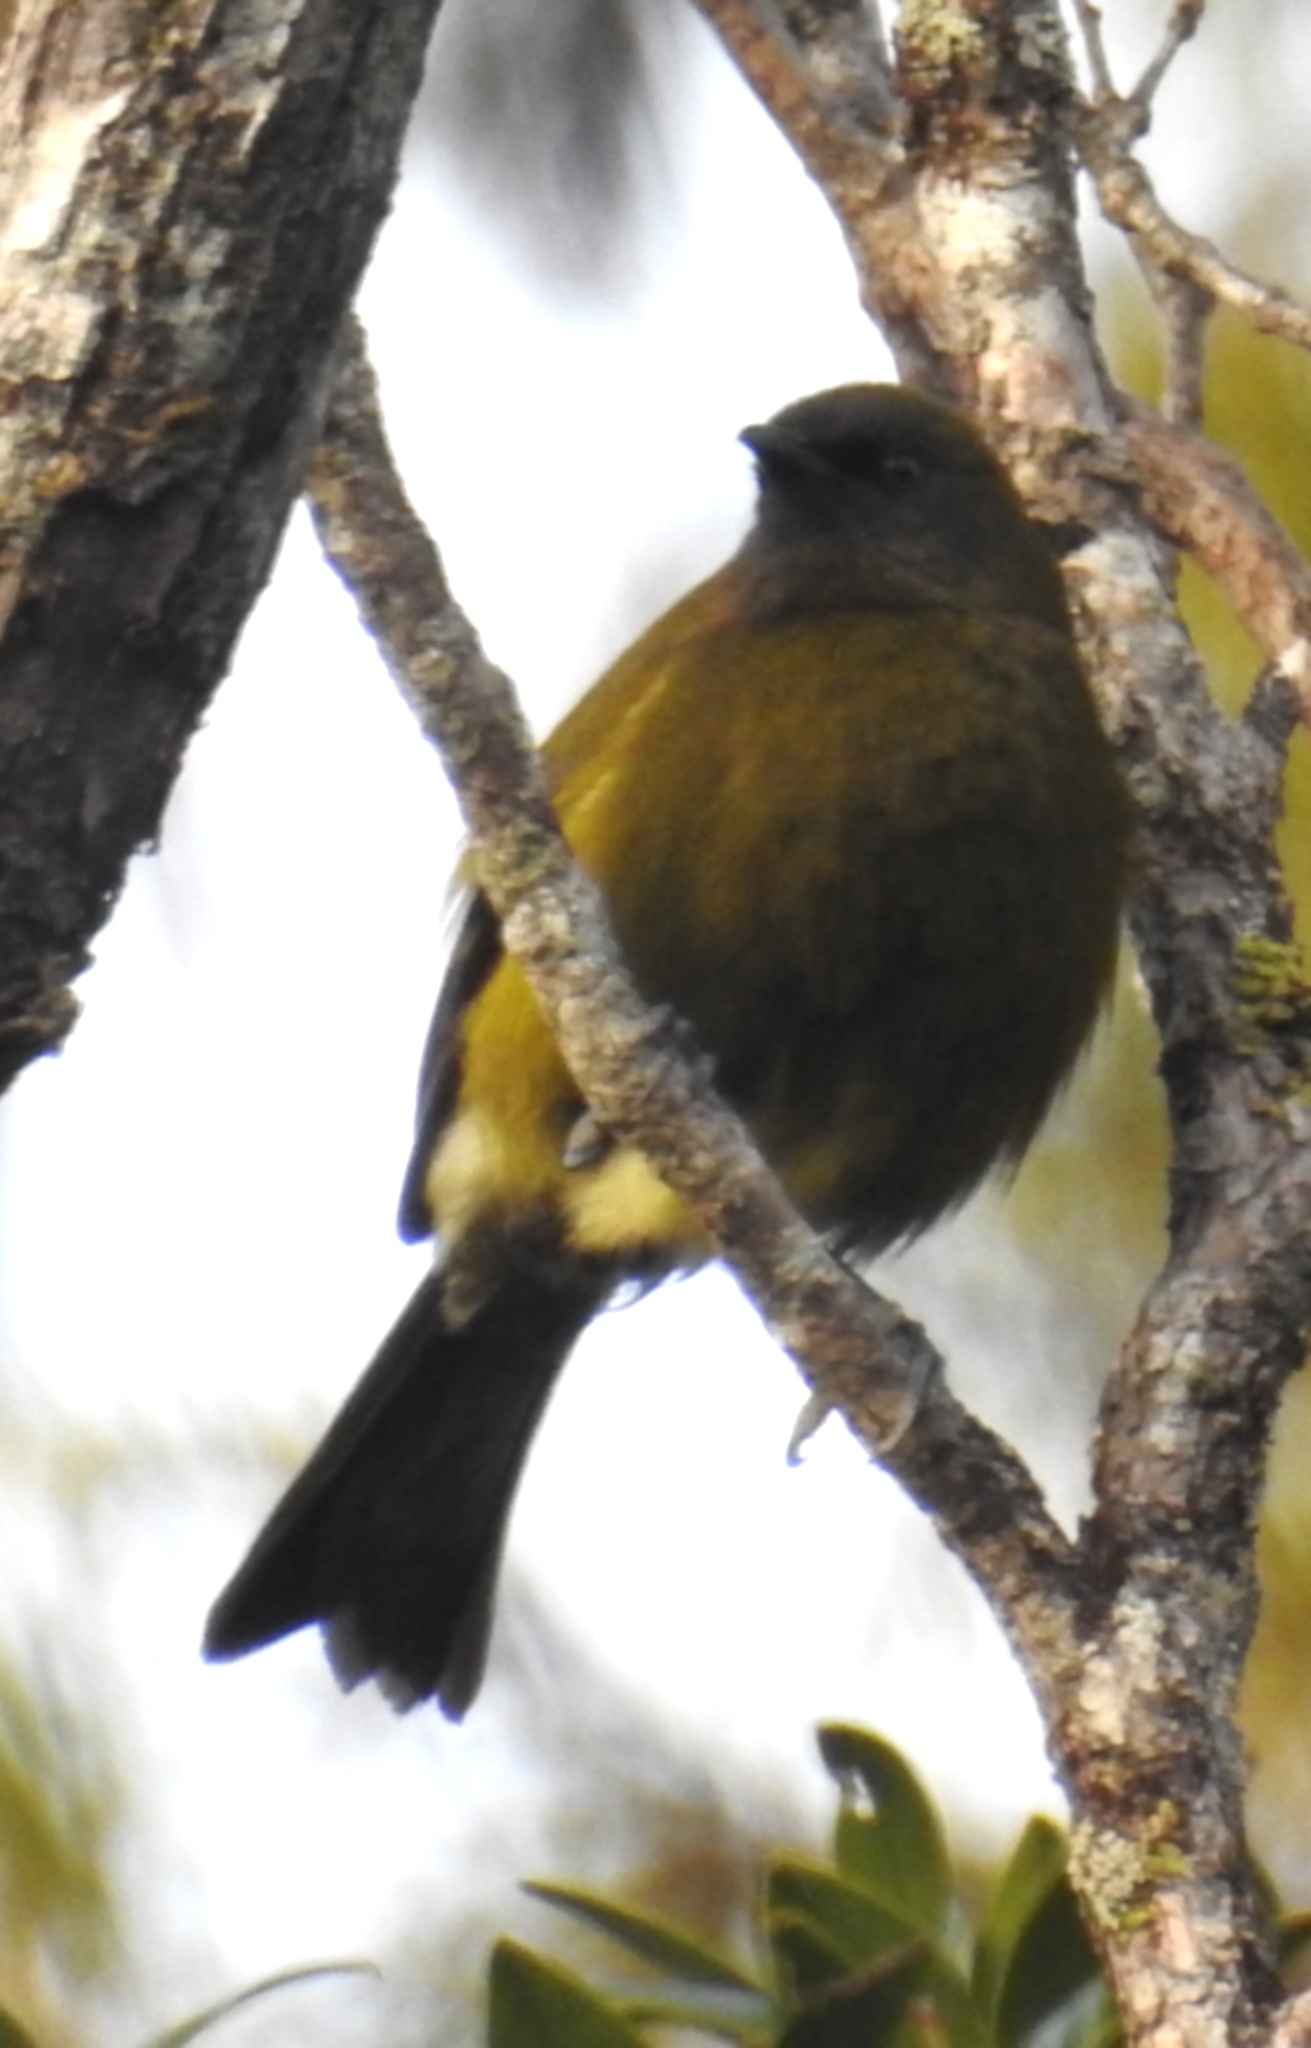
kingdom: Animalia
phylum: Chordata
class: Aves
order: Passeriformes
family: Meliphagidae
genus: Anthornis
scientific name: Anthornis melanura
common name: New zealand bellbird
